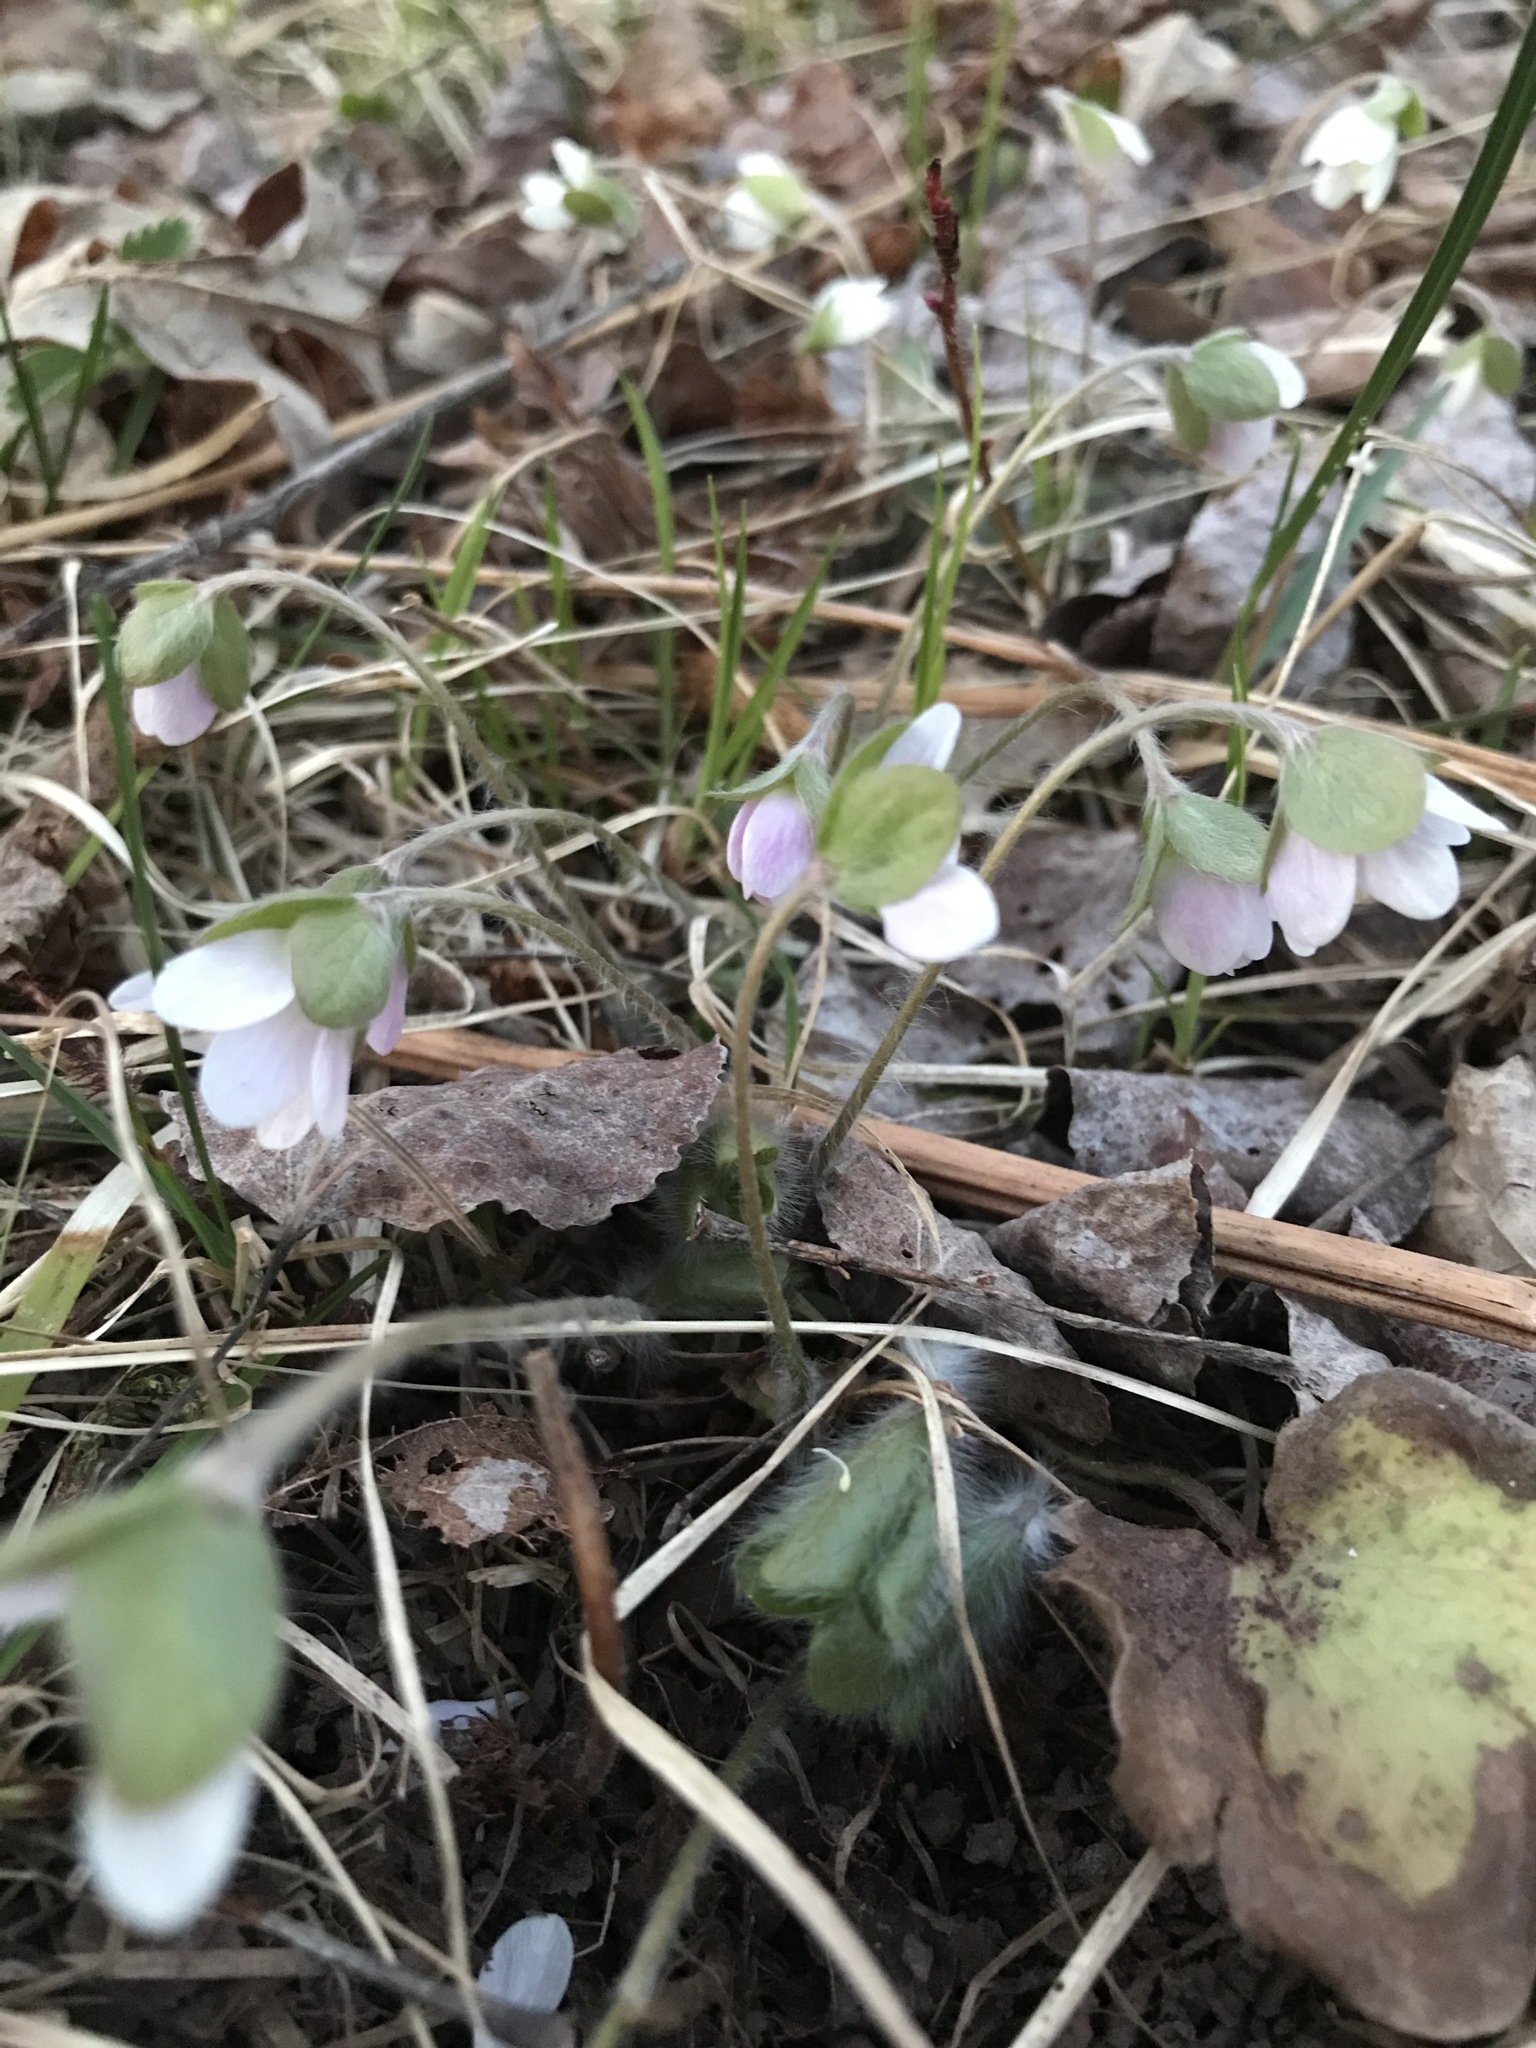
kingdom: Plantae
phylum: Tracheophyta
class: Magnoliopsida
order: Ranunculales
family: Ranunculaceae
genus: Hepatica
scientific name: Hepatica americana
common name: American hepatica
